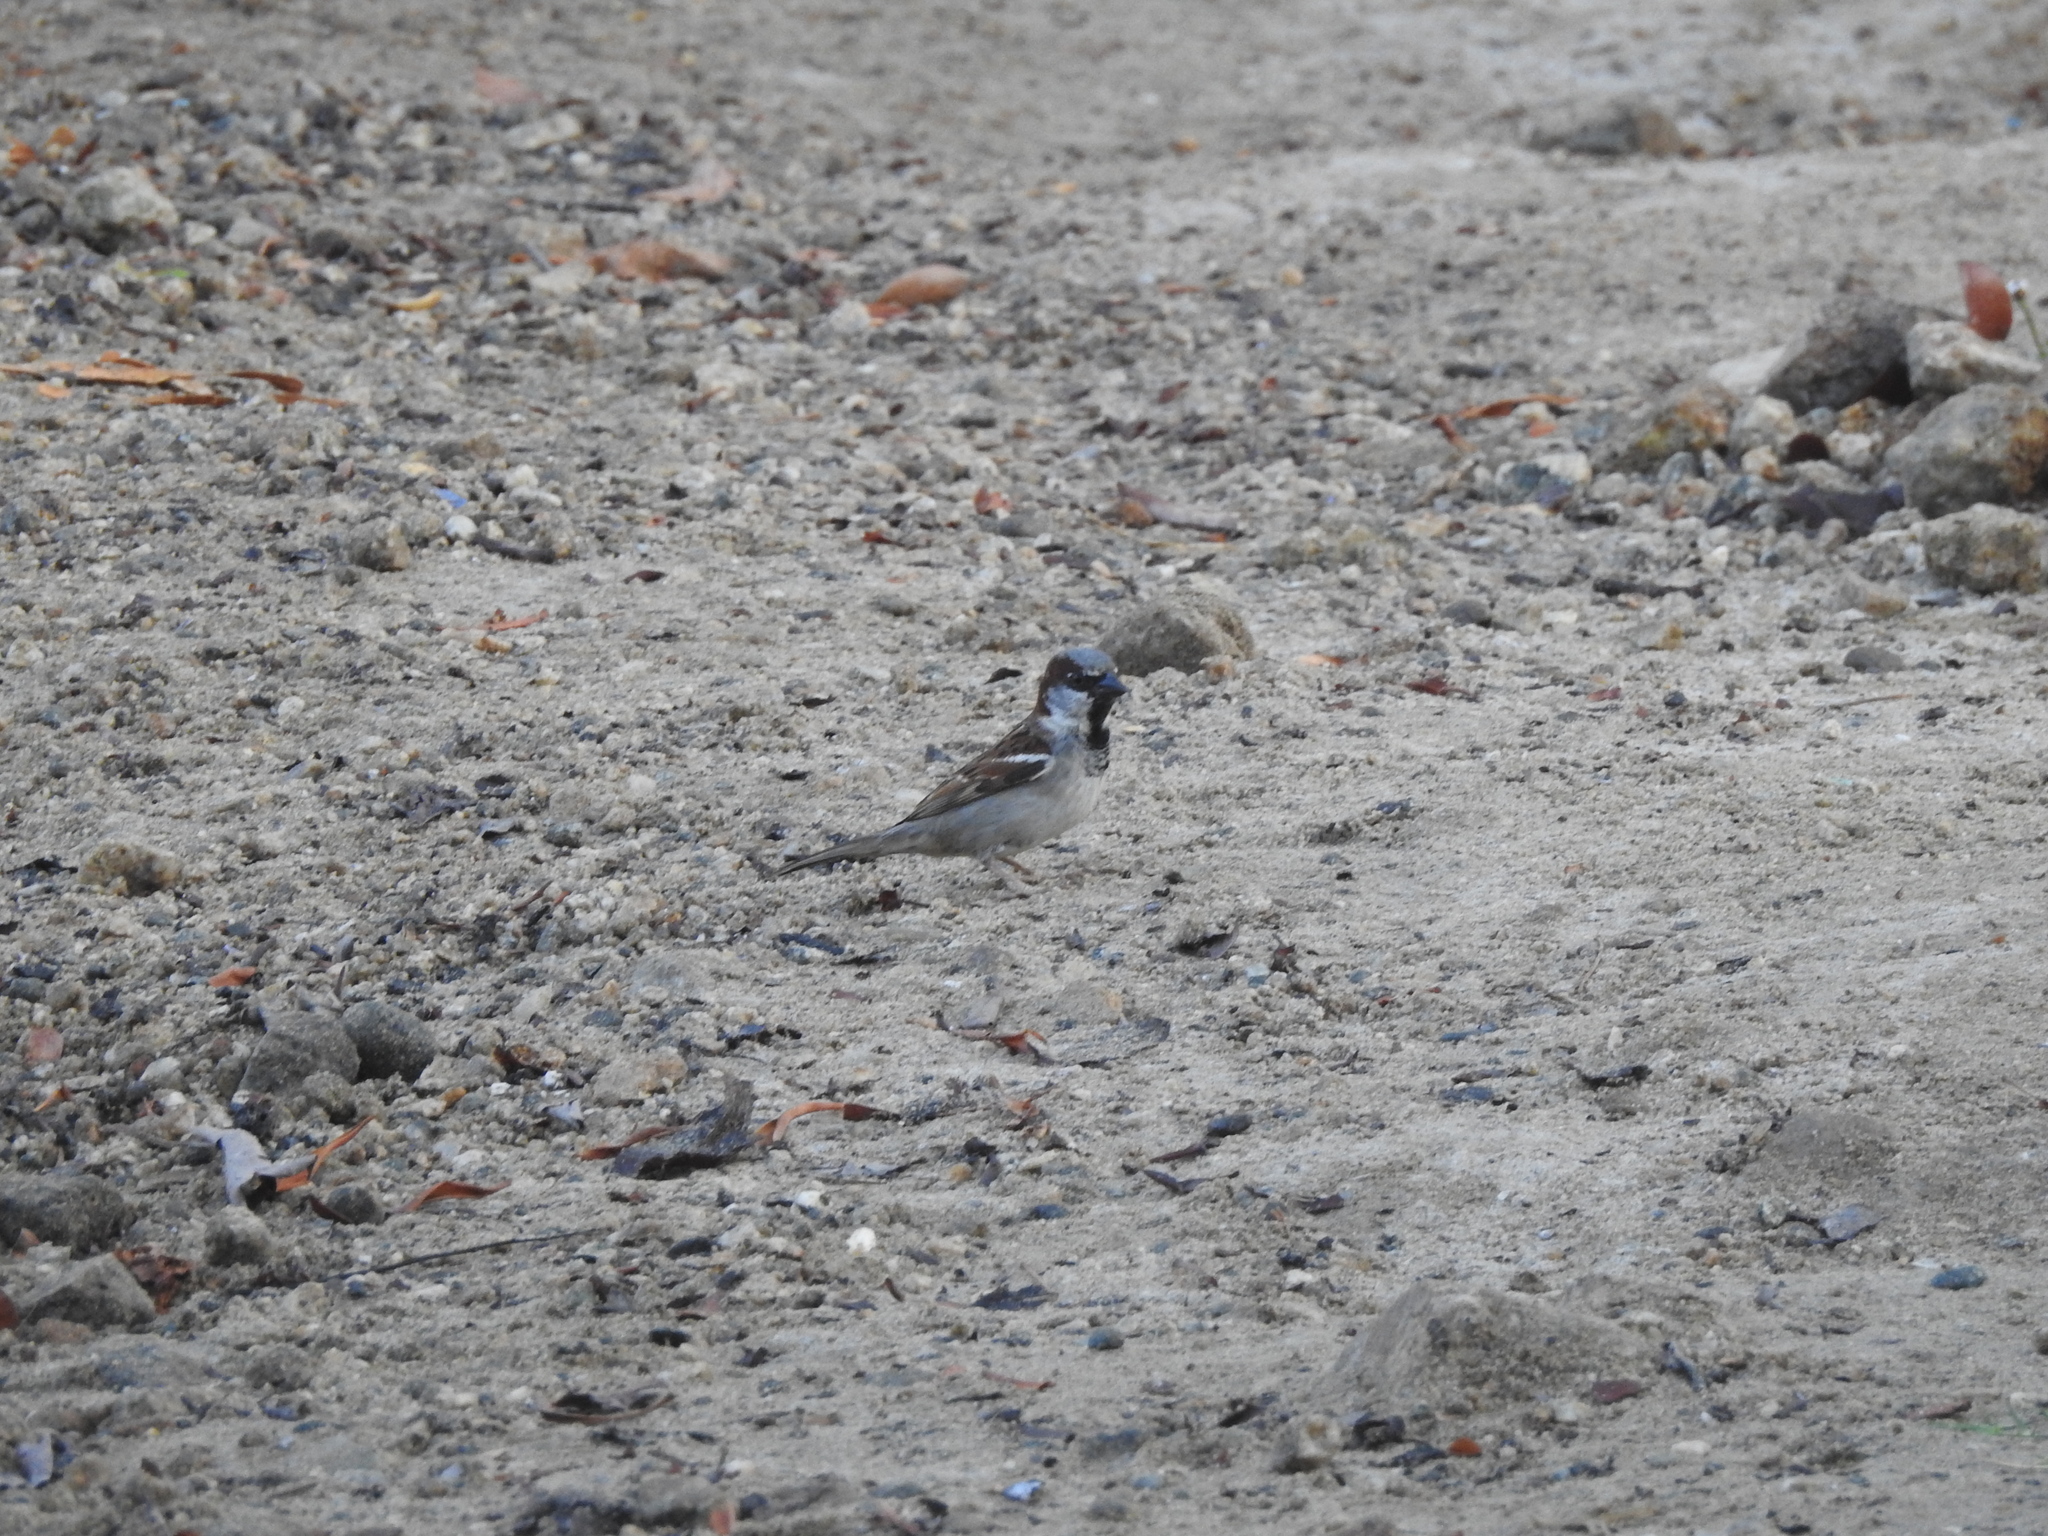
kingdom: Animalia
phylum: Chordata
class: Aves
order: Passeriformes
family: Passeridae
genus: Passer
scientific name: Passer domesticus
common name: House sparrow
